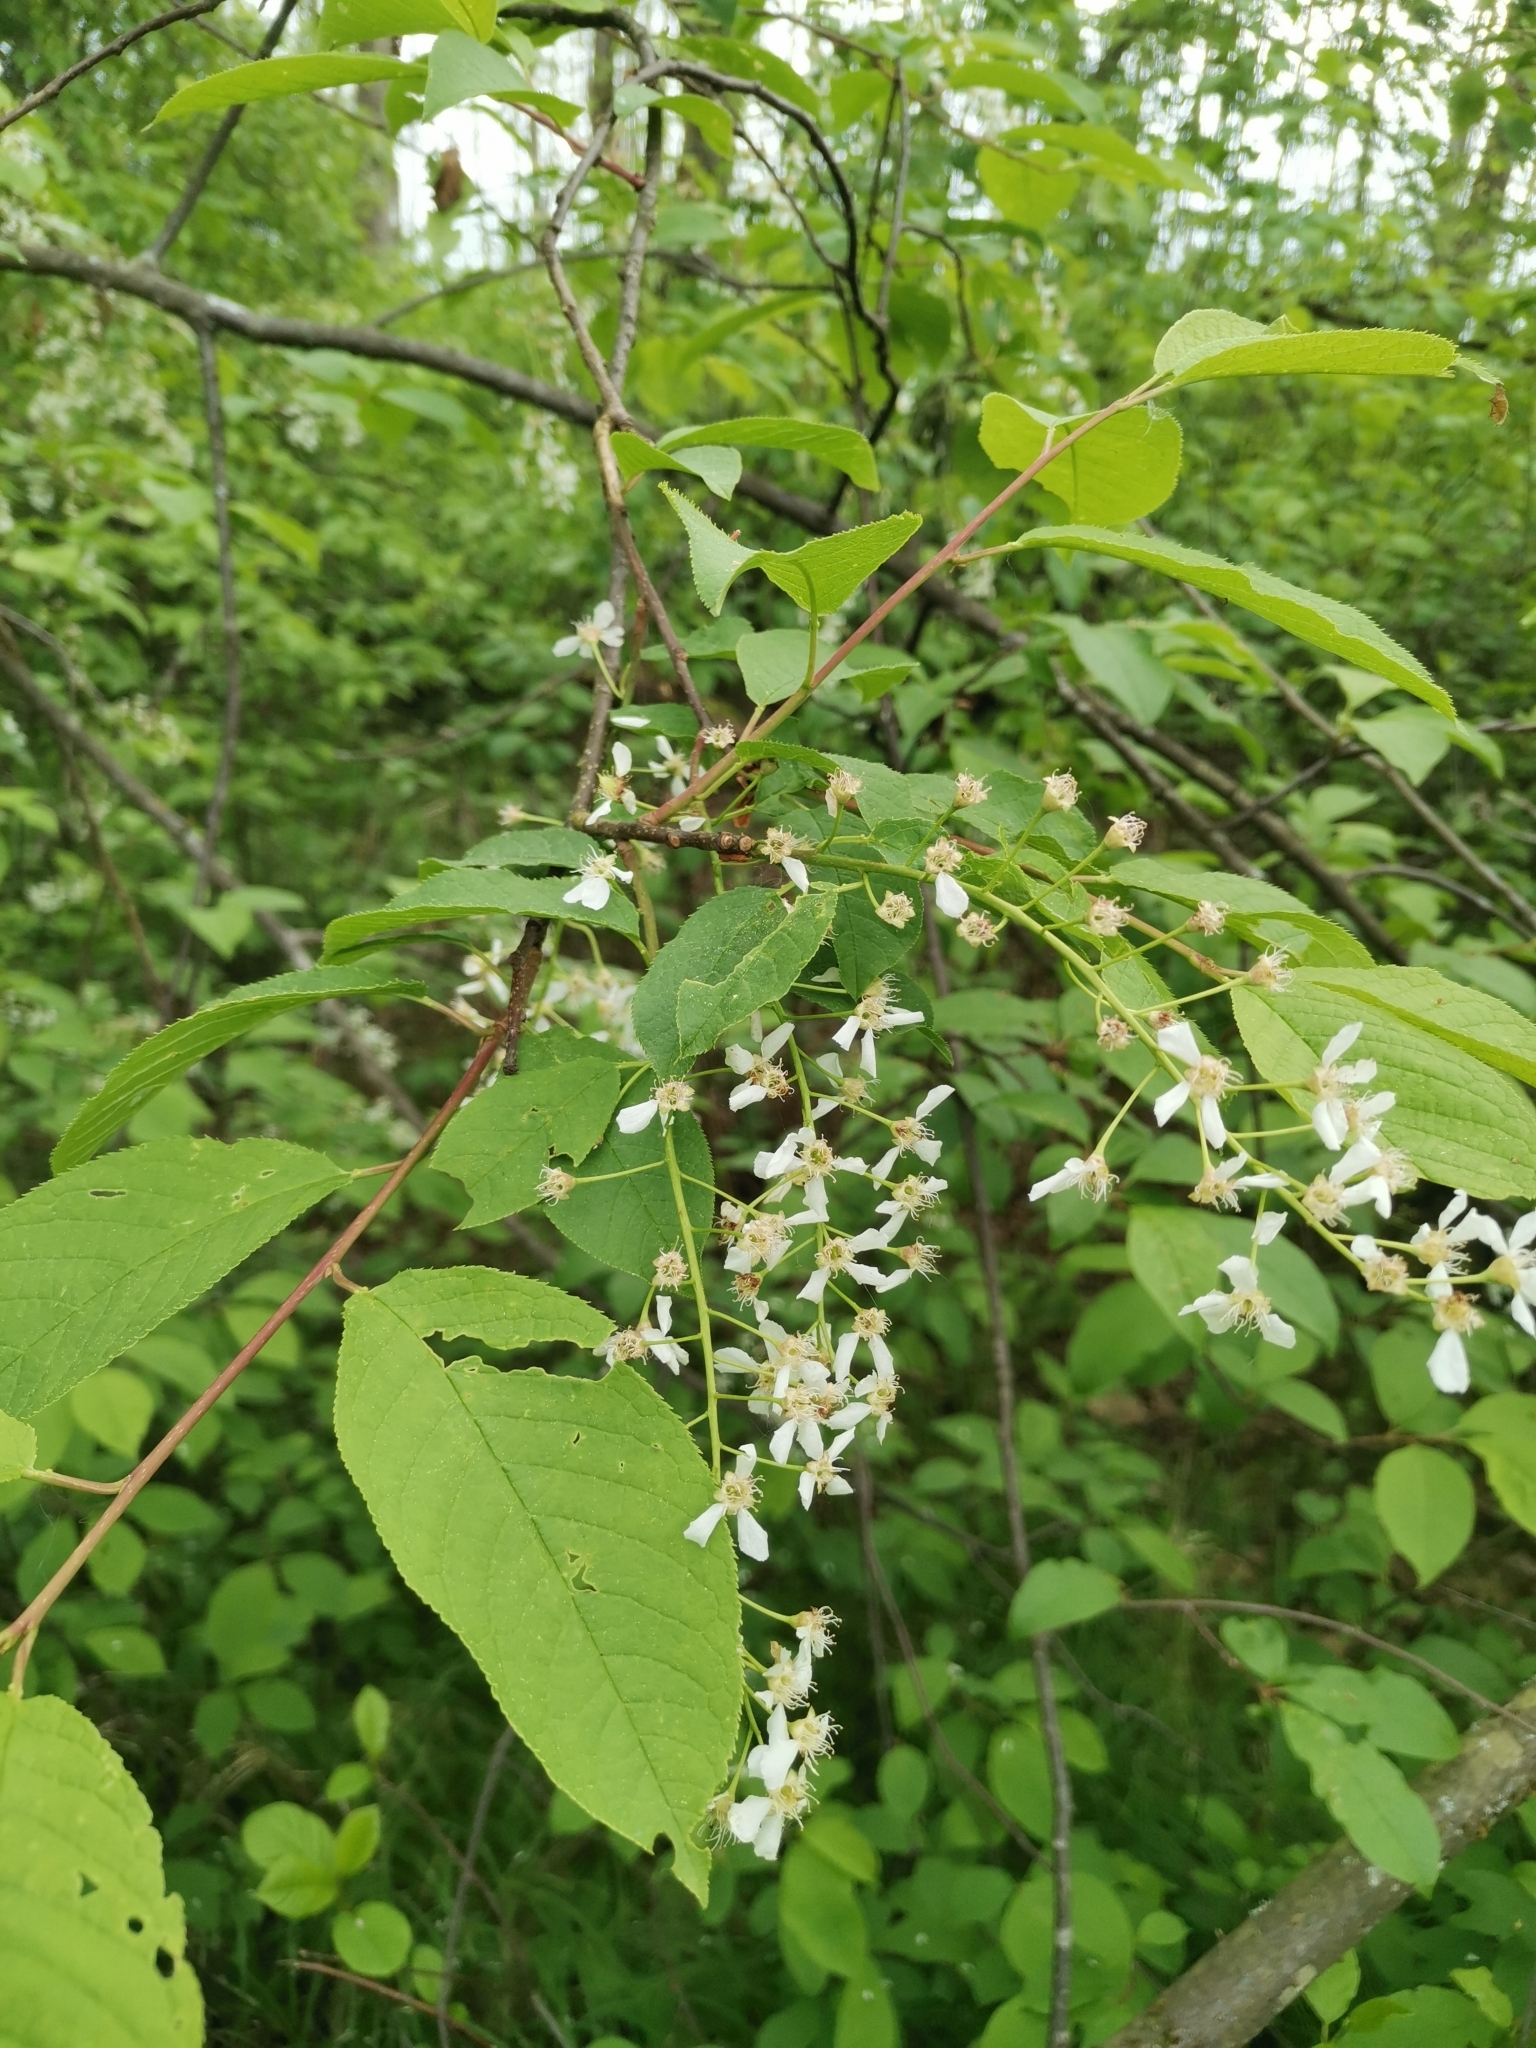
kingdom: Plantae
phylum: Tracheophyta
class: Magnoliopsida
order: Rosales
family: Rosaceae
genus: Prunus
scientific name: Prunus padus
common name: Bird cherry
